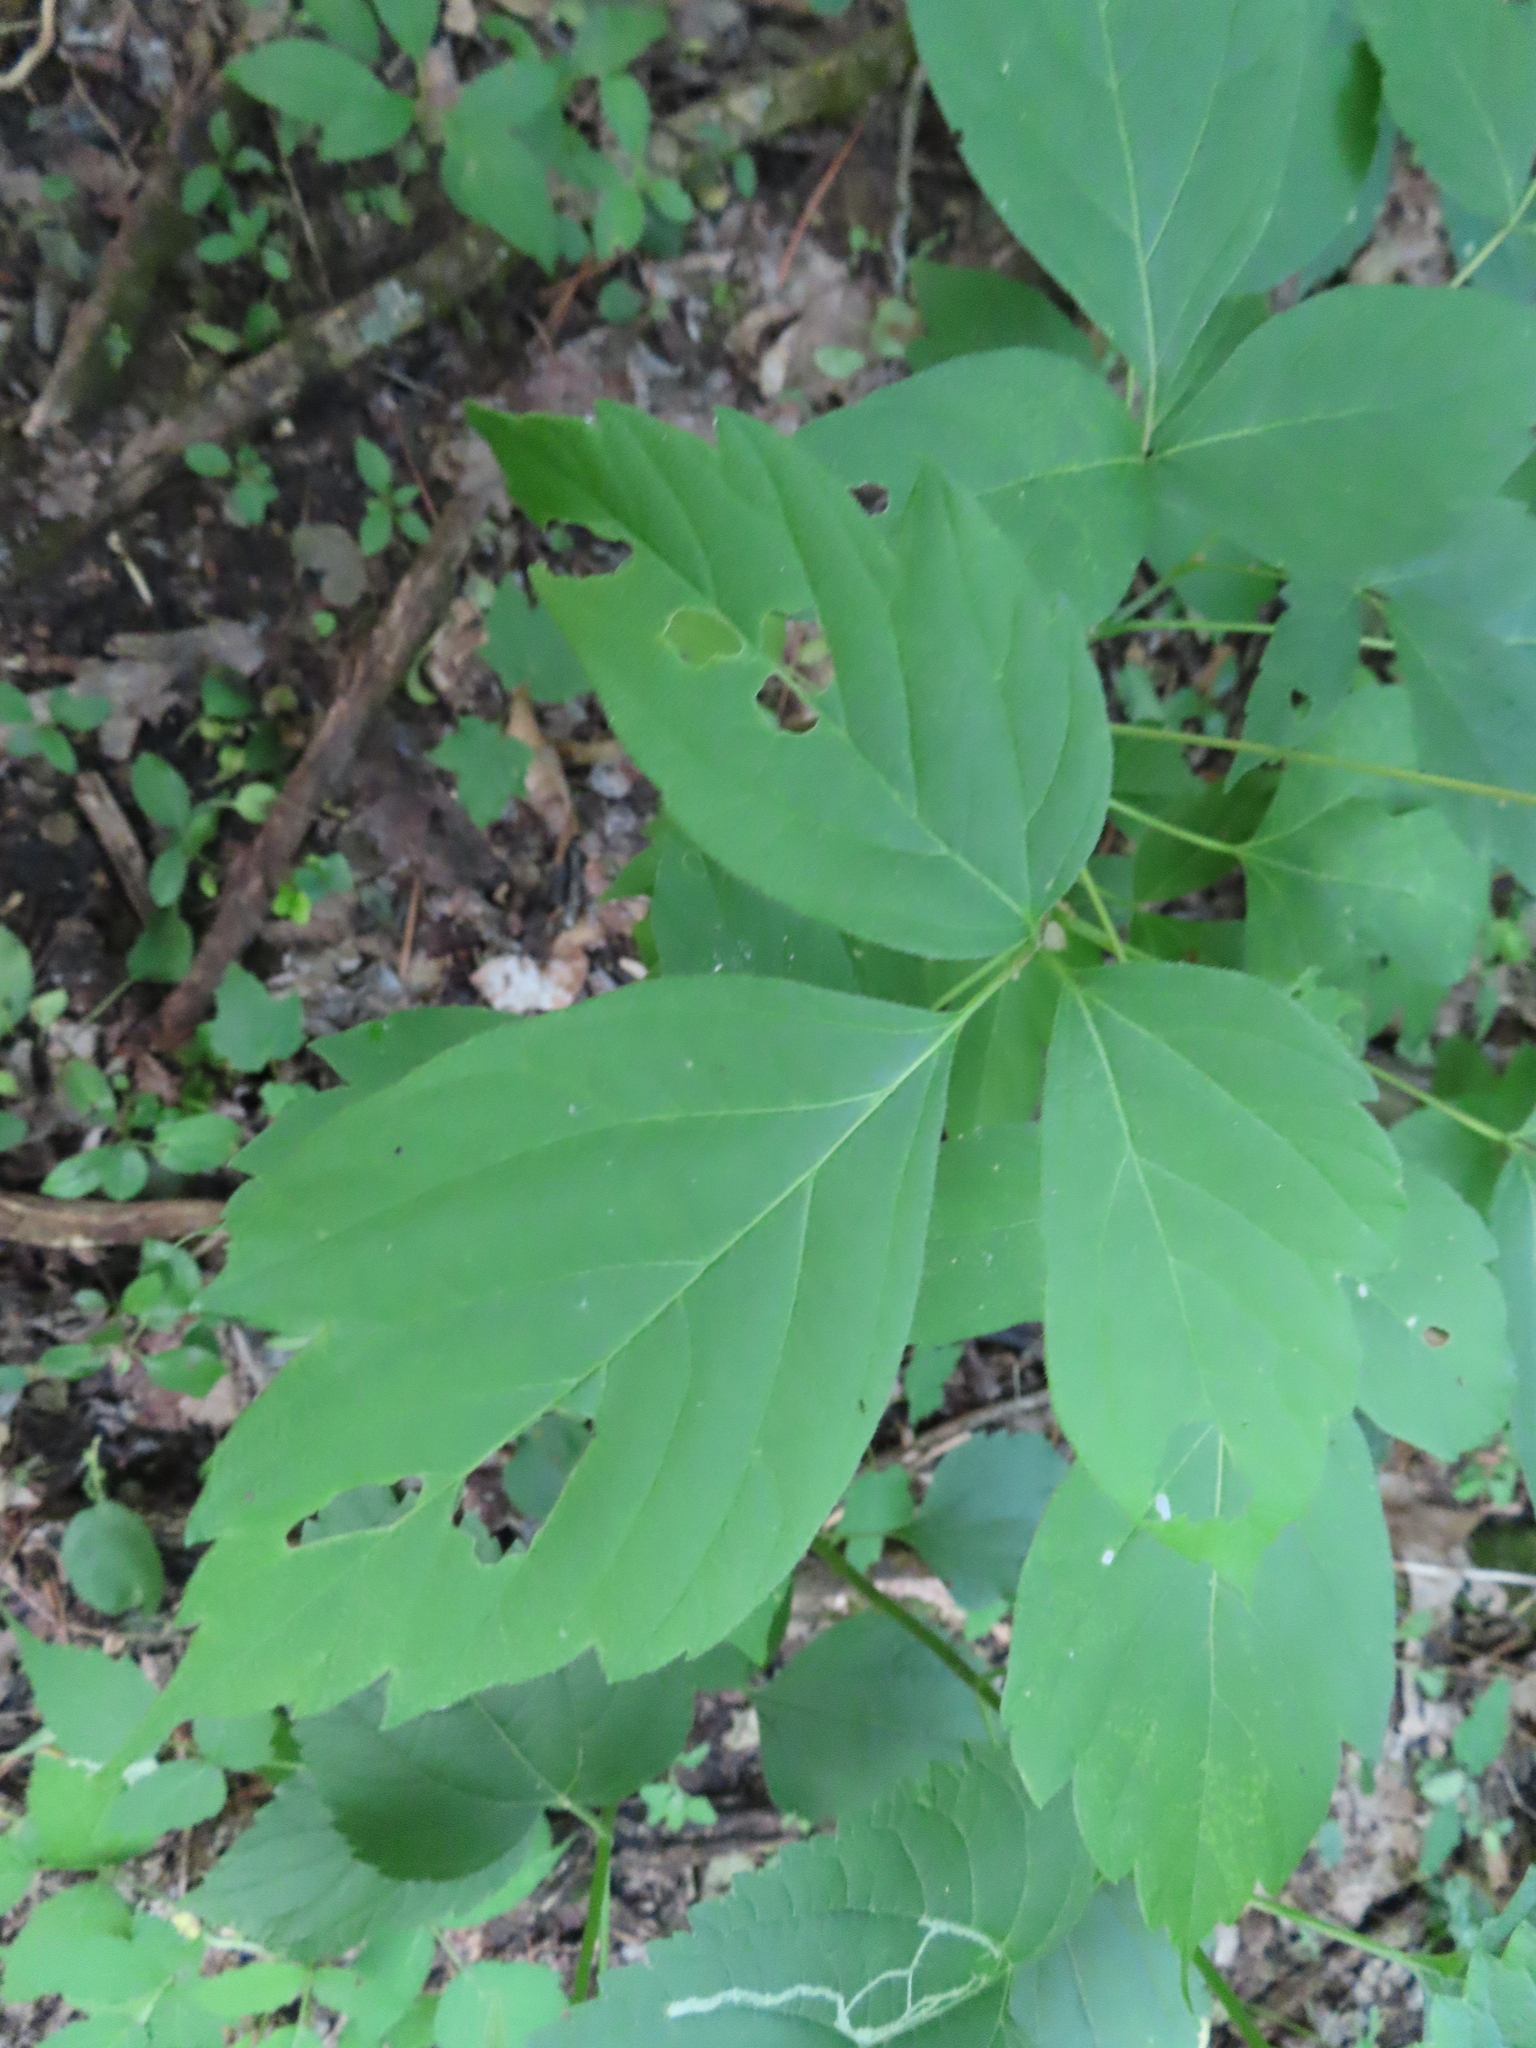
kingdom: Plantae
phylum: Tracheophyta
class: Magnoliopsida
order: Sapindales
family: Sapindaceae
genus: Acer
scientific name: Acer negundo
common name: Ashleaf maple
